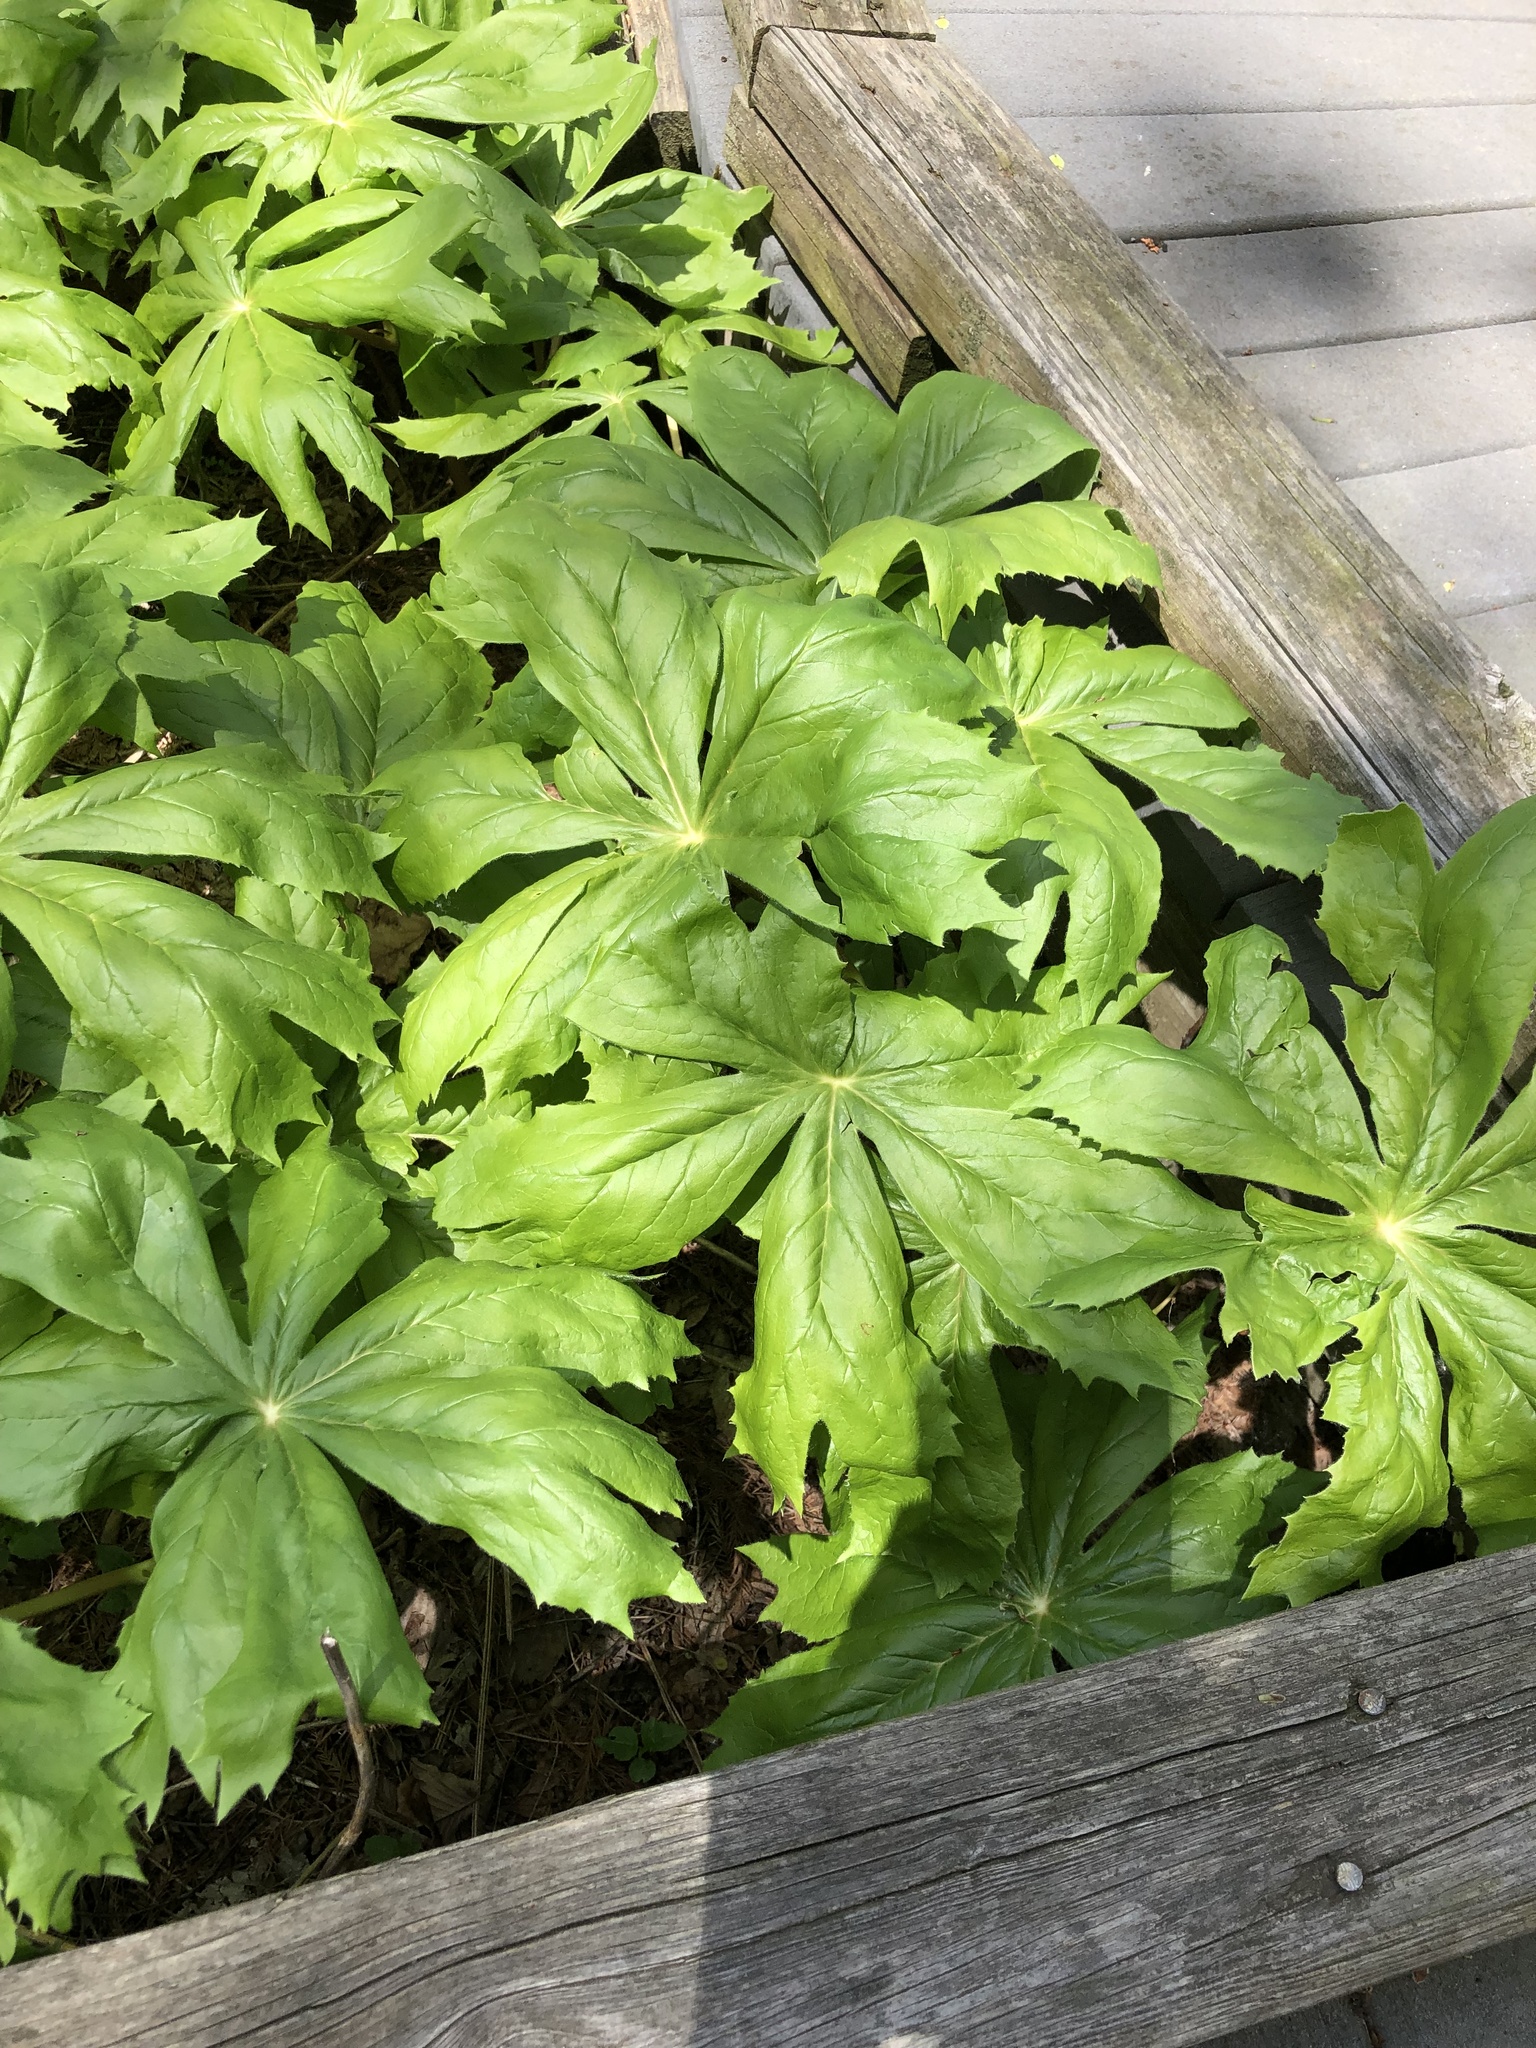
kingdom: Plantae
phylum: Tracheophyta
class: Magnoliopsida
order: Ranunculales
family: Berberidaceae
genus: Podophyllum
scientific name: Podophyllum peltatum
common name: Wild mandrake
